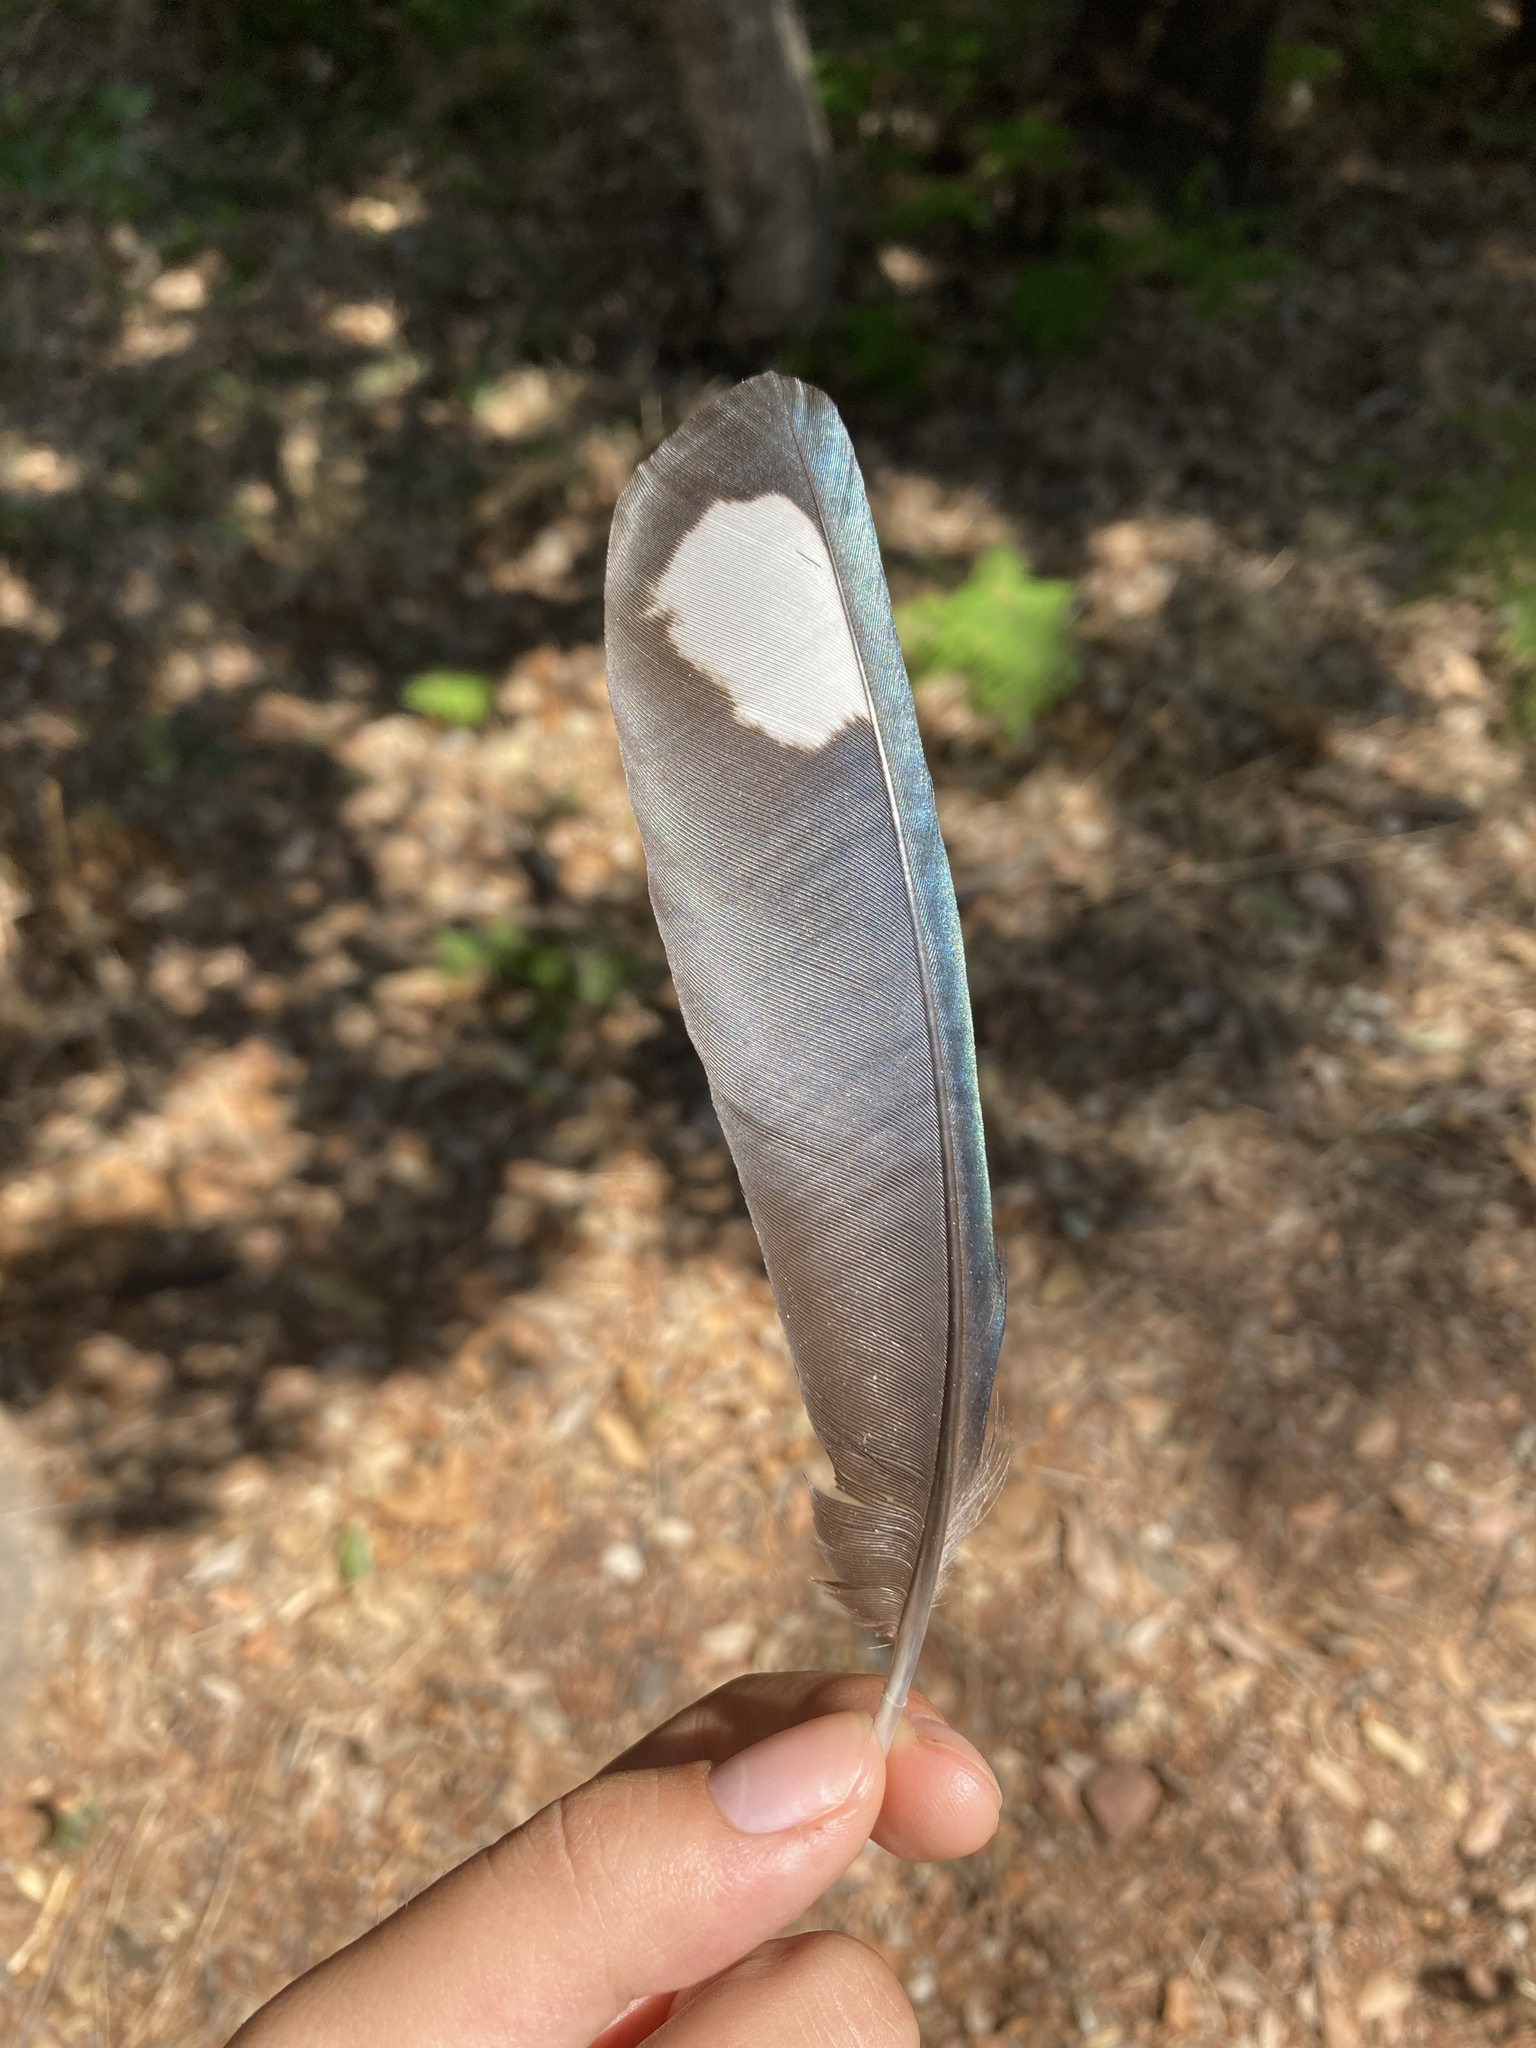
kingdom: Animalia
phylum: Chordata
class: Aves
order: Passeriformes
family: Corvidae
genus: Pica
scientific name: Pica pica
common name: Eurasian magpie
